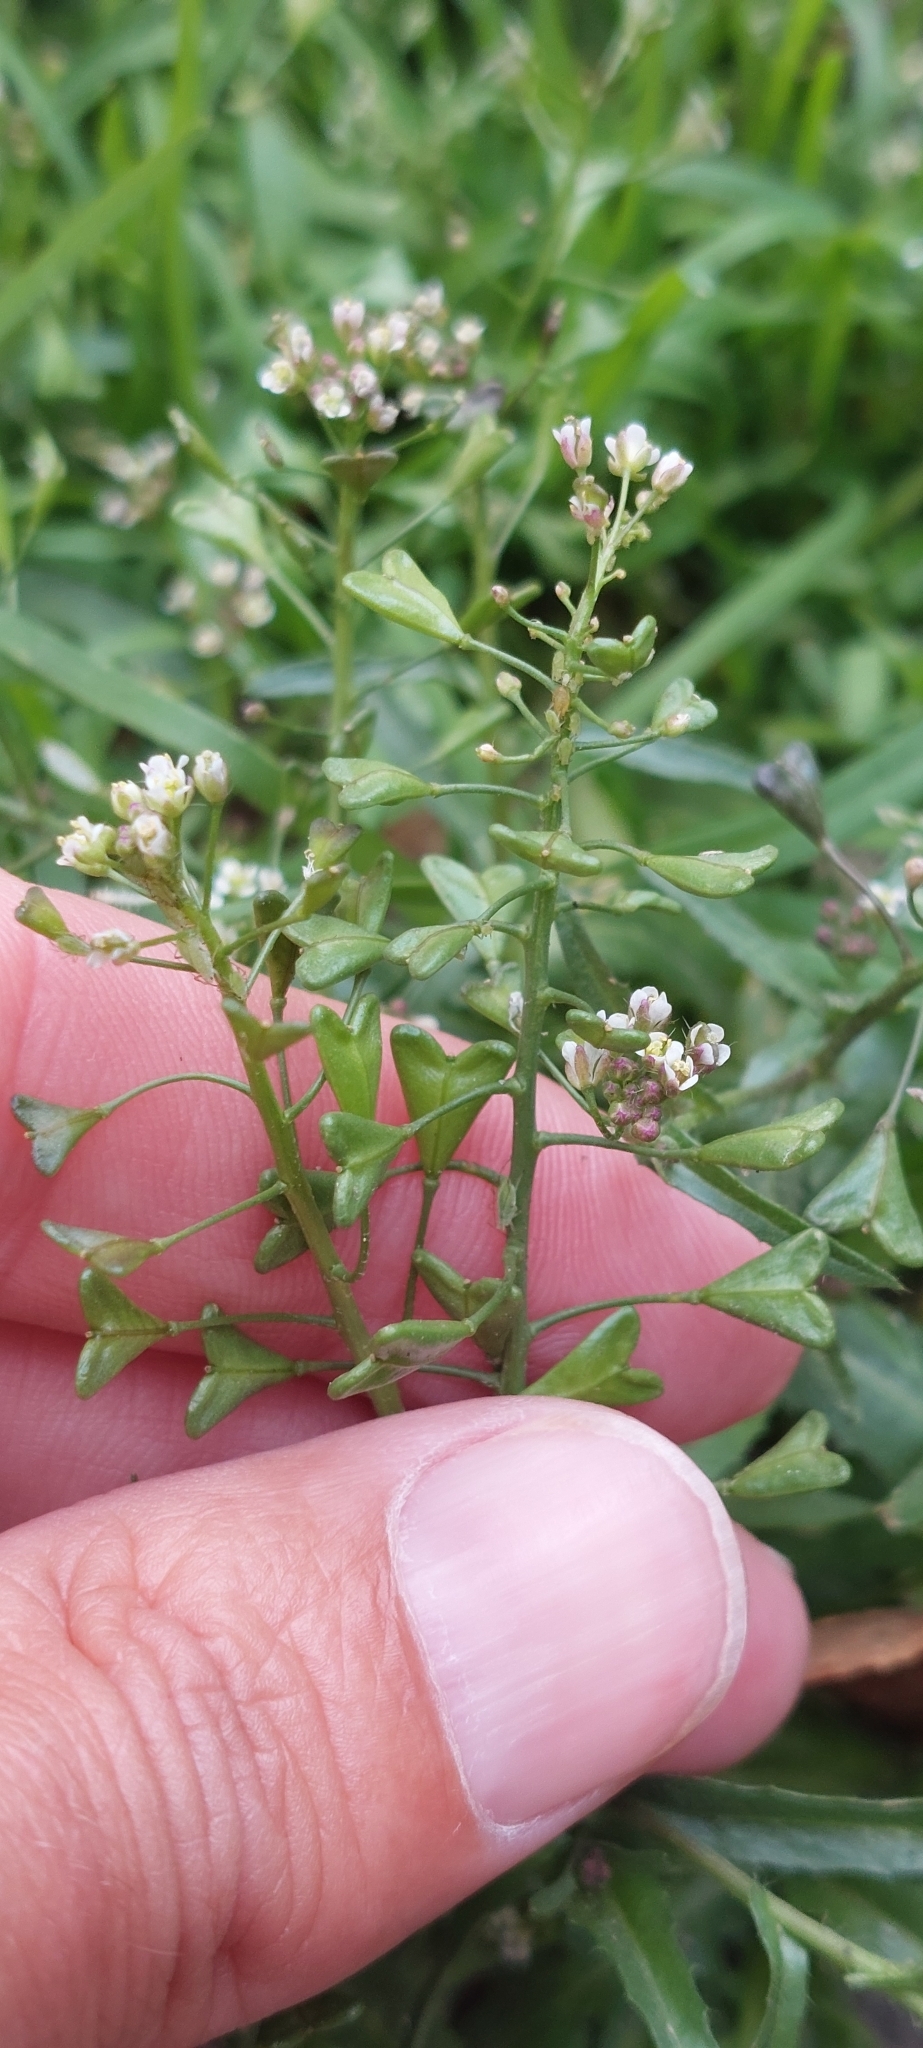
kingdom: Plantae
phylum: Tracheophyta
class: Magnoliopsida
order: Brassicales
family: Brassicaceae
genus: Capsella
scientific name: Capsella bursa-pastoris
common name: Shepherd's purse
